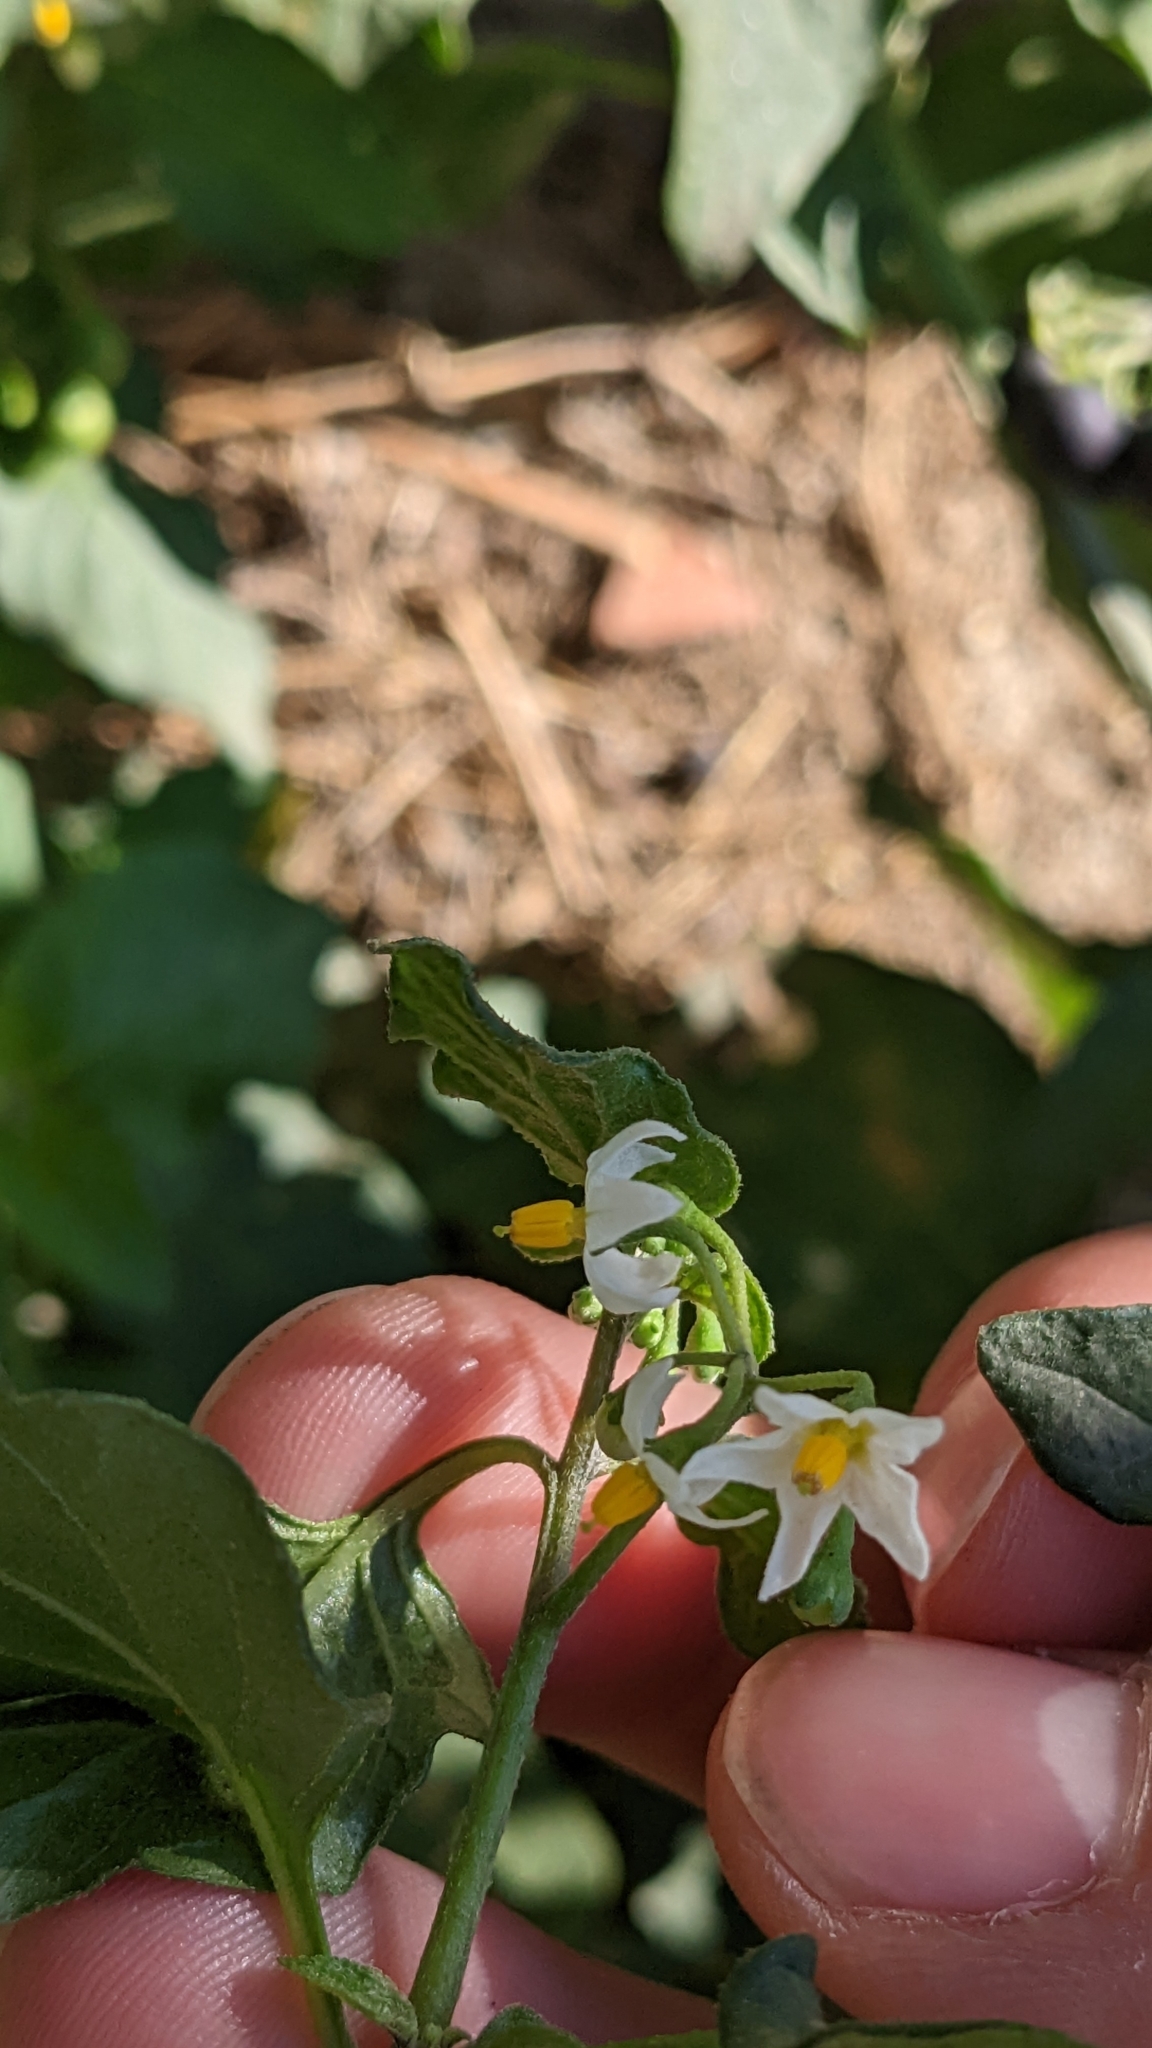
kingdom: Plantae
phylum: Tracheophyta
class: Magnoliopsida
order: Solanales
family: Solanaceae
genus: Solanum
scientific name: Solanum nigrum
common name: Black nightshade
